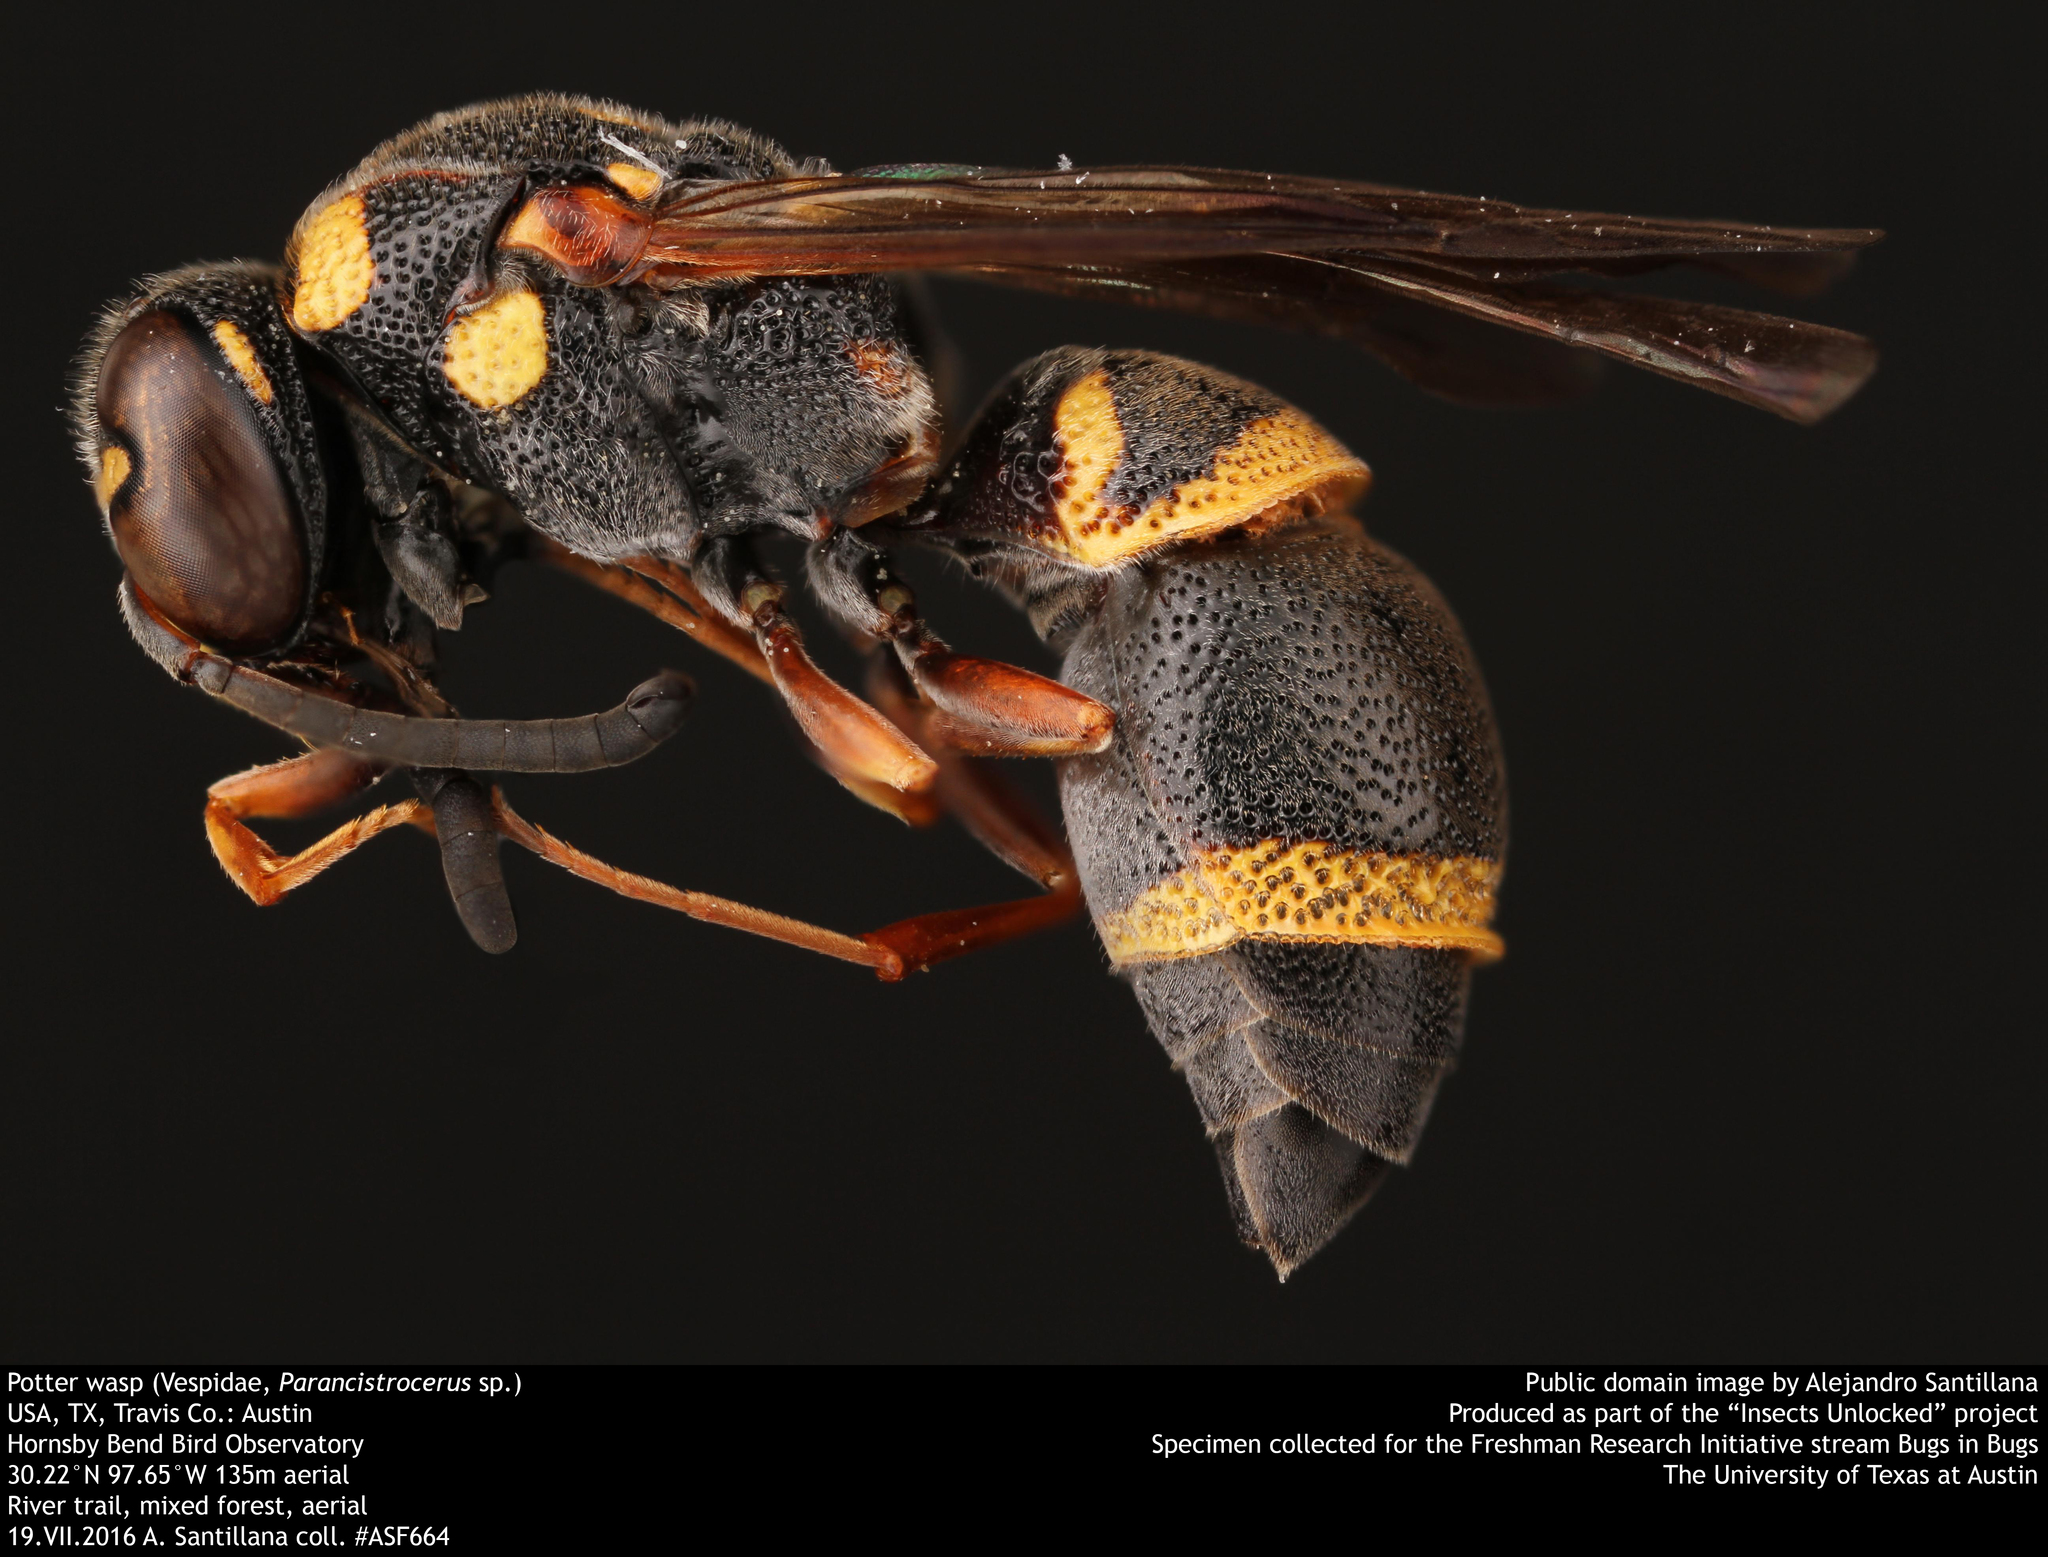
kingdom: Animalia
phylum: Arthropoda
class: Insecta
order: Hymenoptera
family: Eumenidae
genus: Parancistrocerus
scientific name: Parancistrocerus fulvipes
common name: Potter wasp
